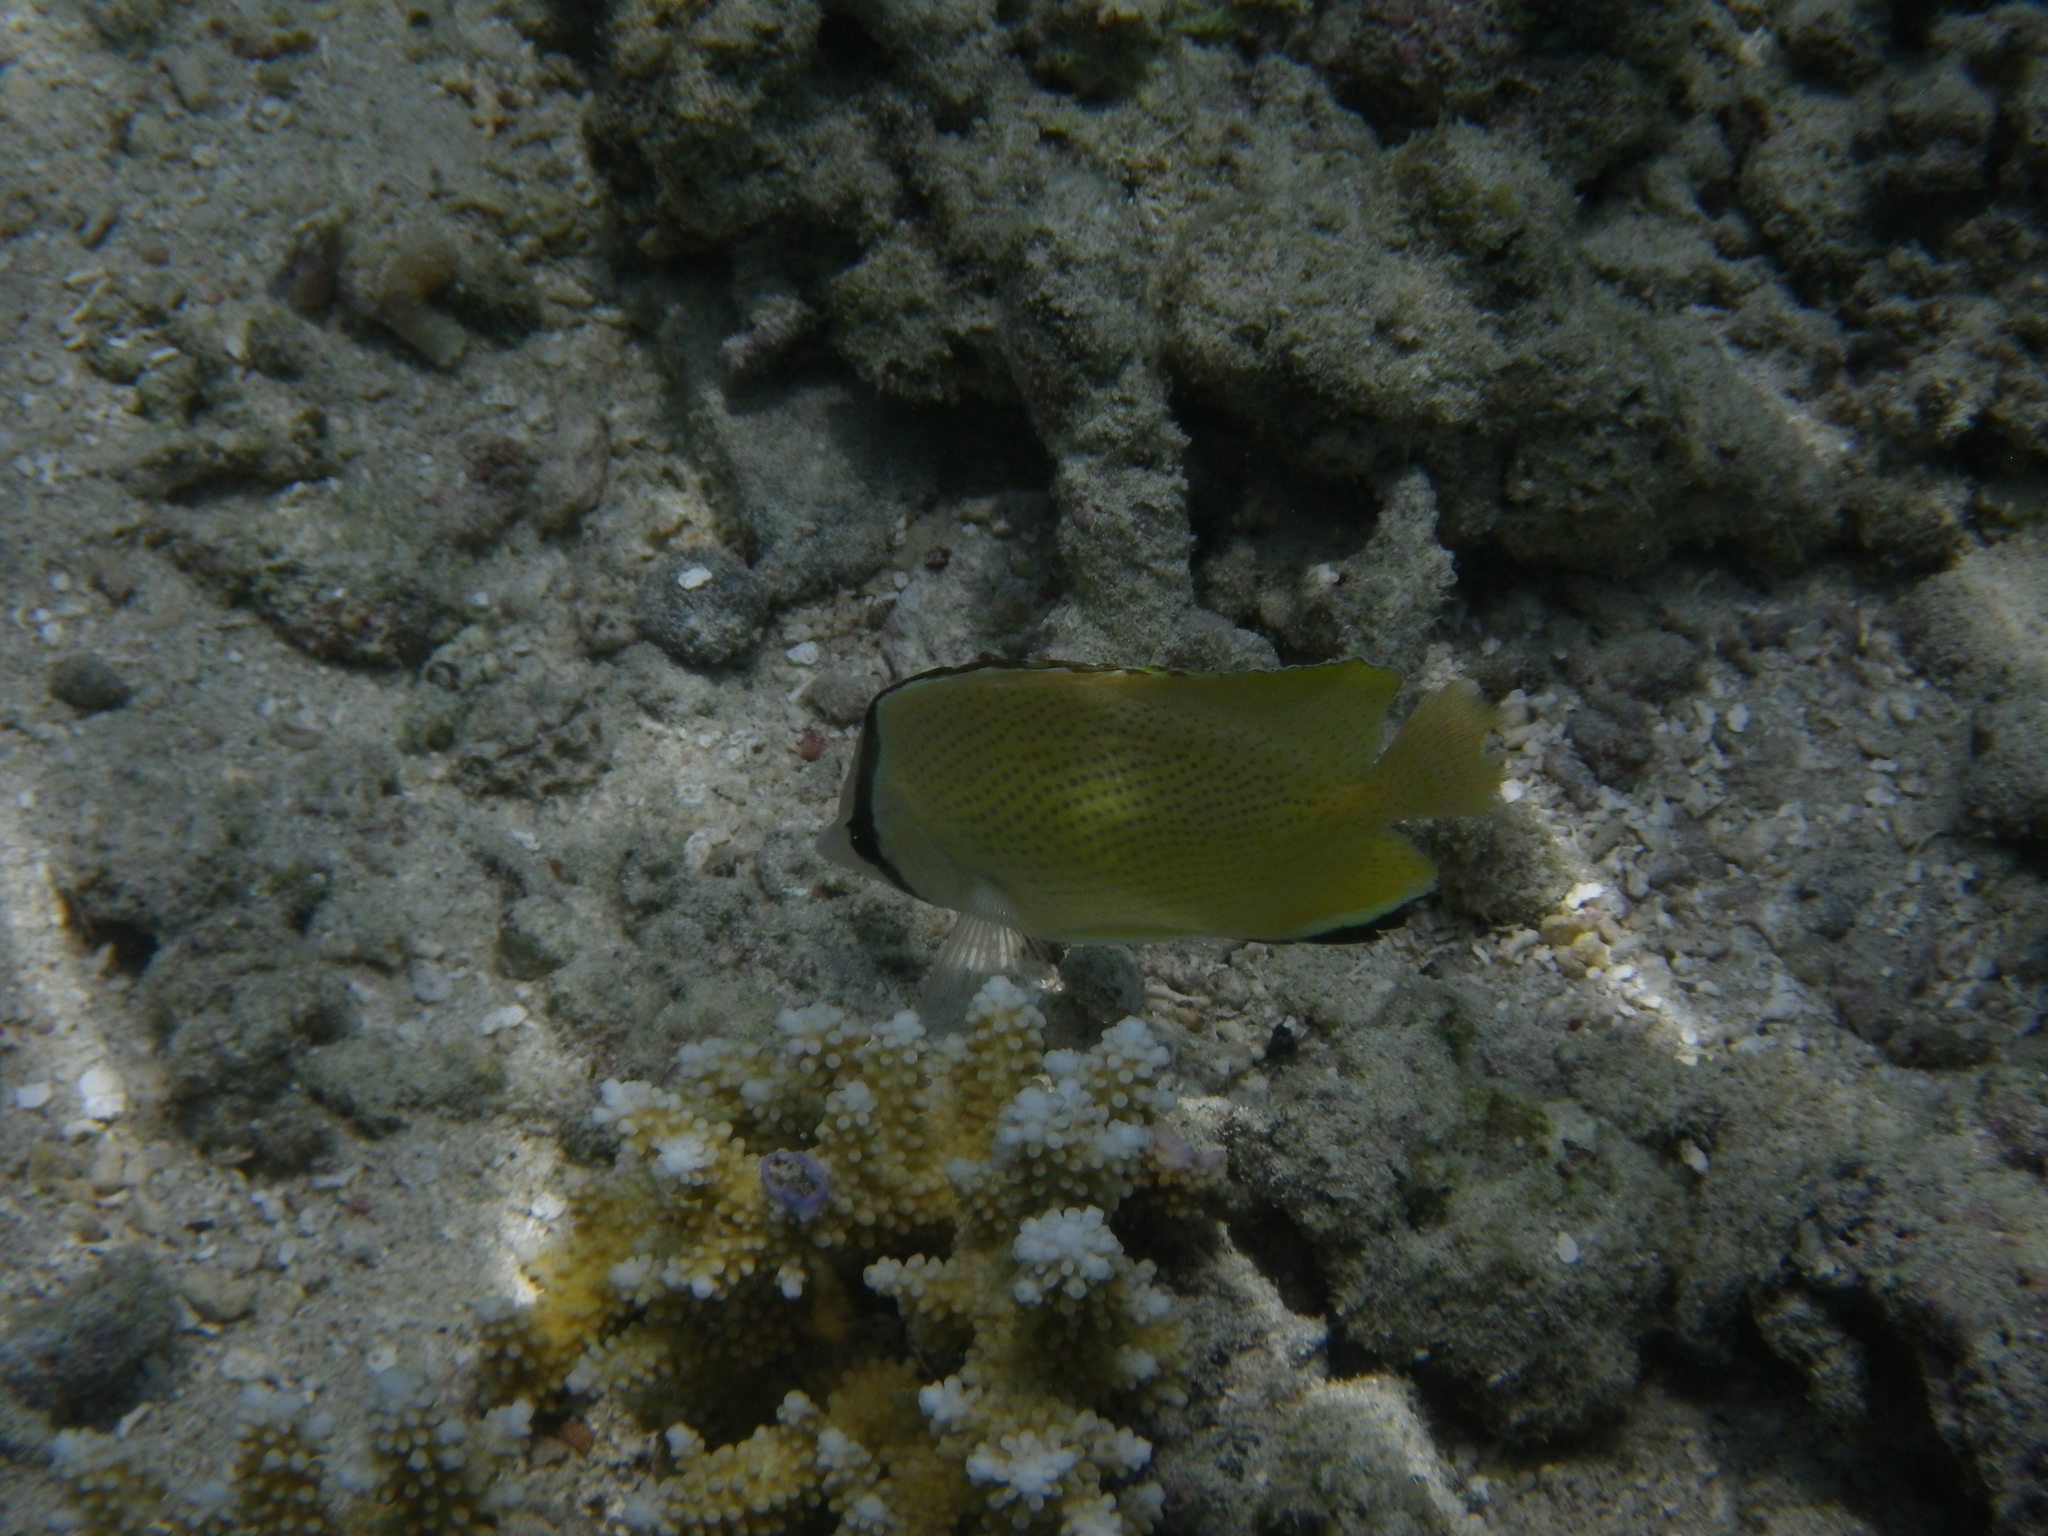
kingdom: Animalia
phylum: Chordata
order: Perciformes
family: Chaetodontidae
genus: Chaetodon
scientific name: Chaetodon citrinellus
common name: Speckled butterflyfish
